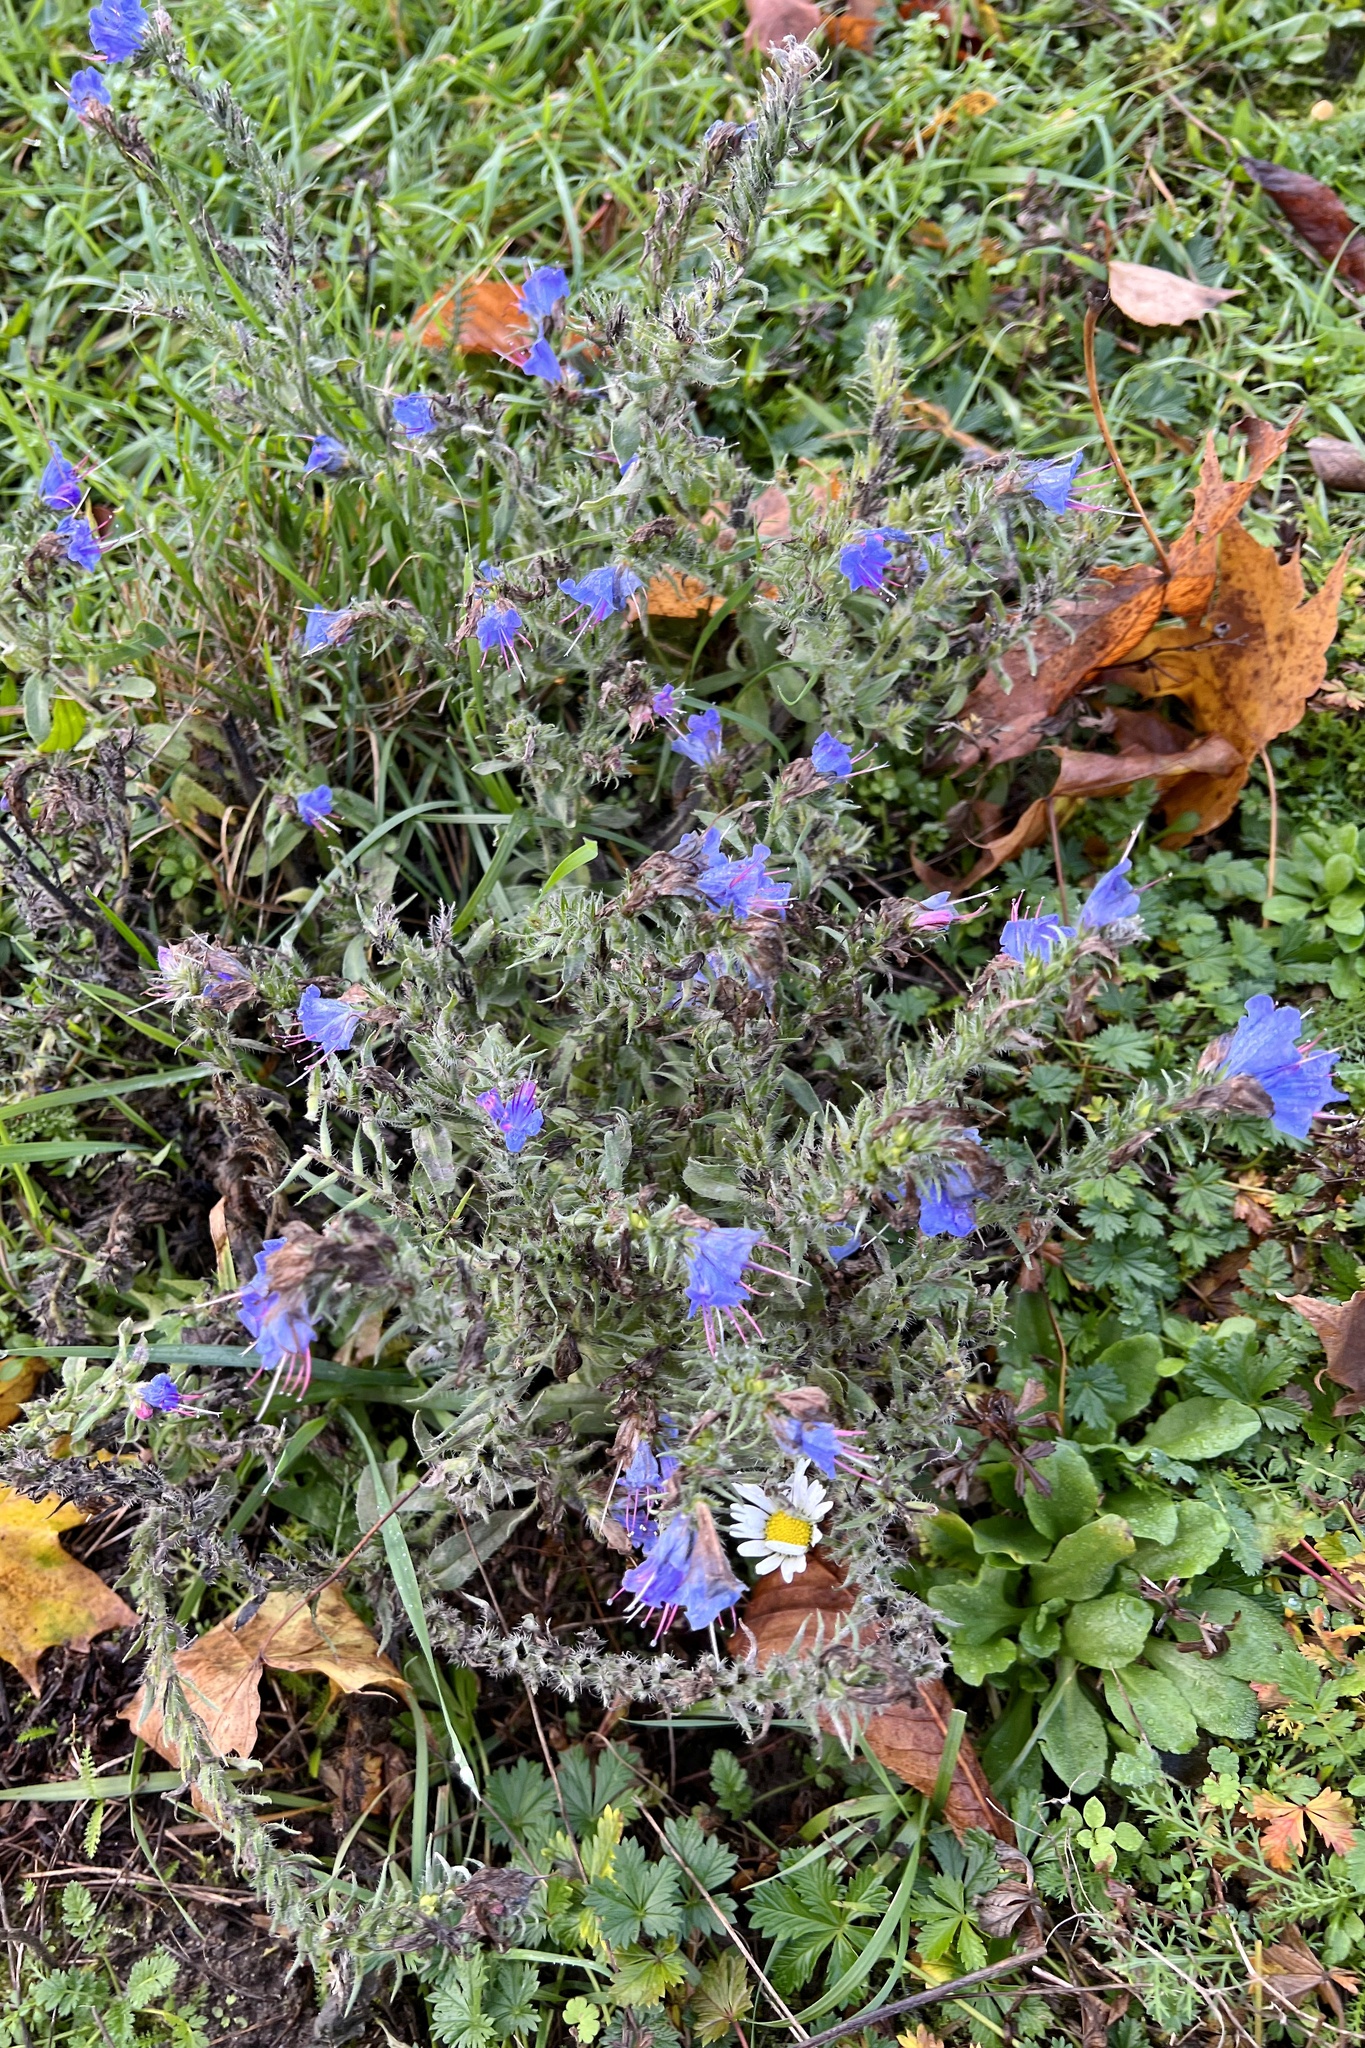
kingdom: Plantae
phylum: Tracheophyta
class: Magnoliopsida
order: Boraginales
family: Boraginaceae
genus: Echium
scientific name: Echium vulgare
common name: Common viper's bugloss
